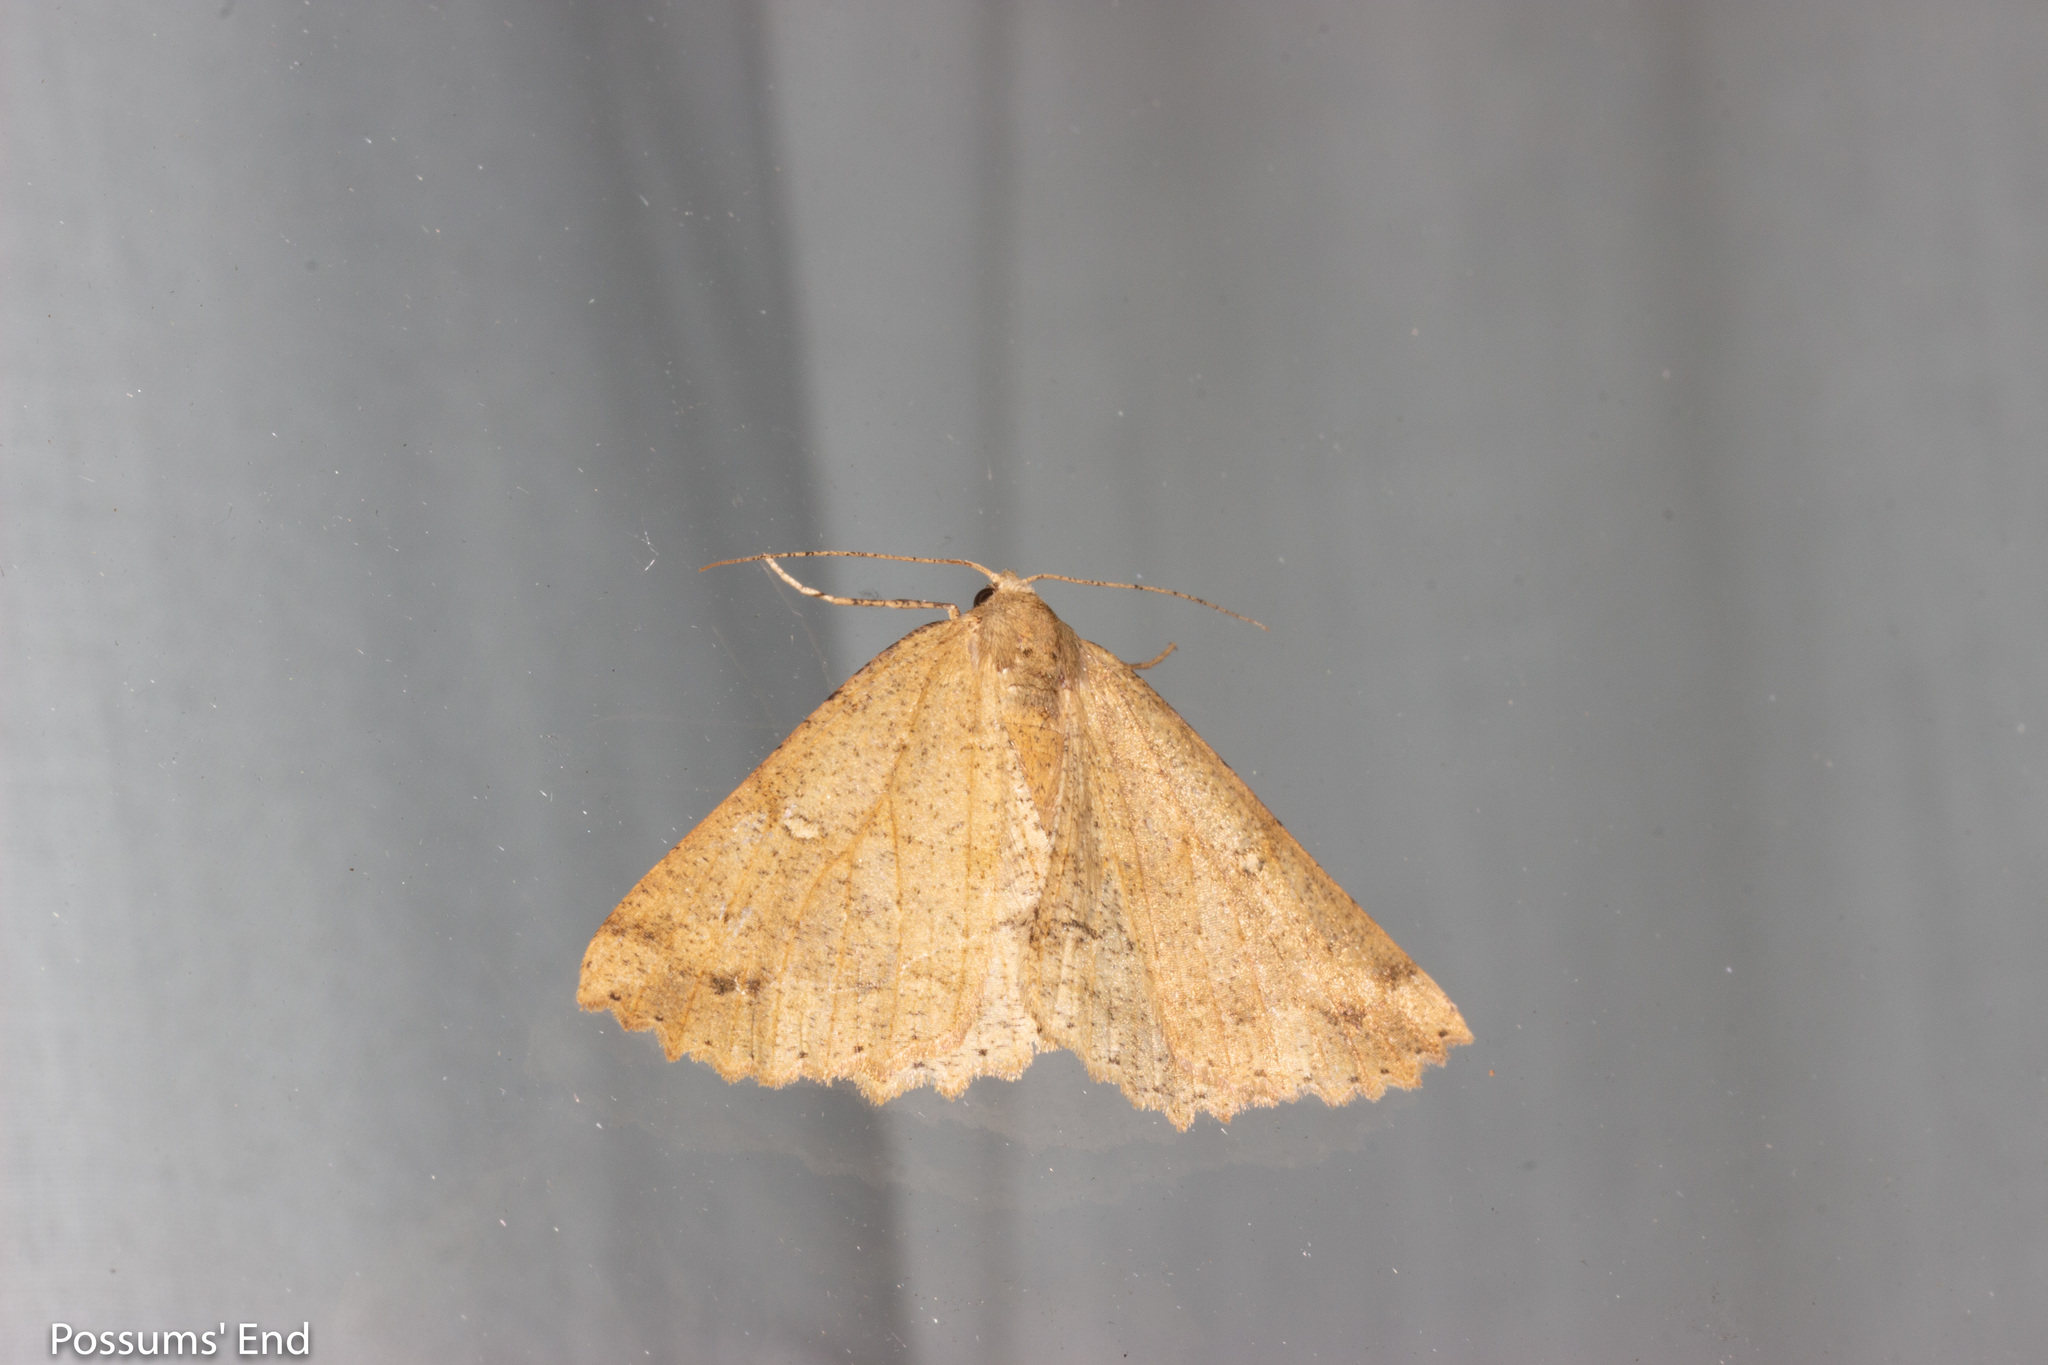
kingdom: Animalia
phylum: Arthropoda
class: Insecta
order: Lepidoptera
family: Geometridae
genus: Cleora
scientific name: Cleora scriptaria
